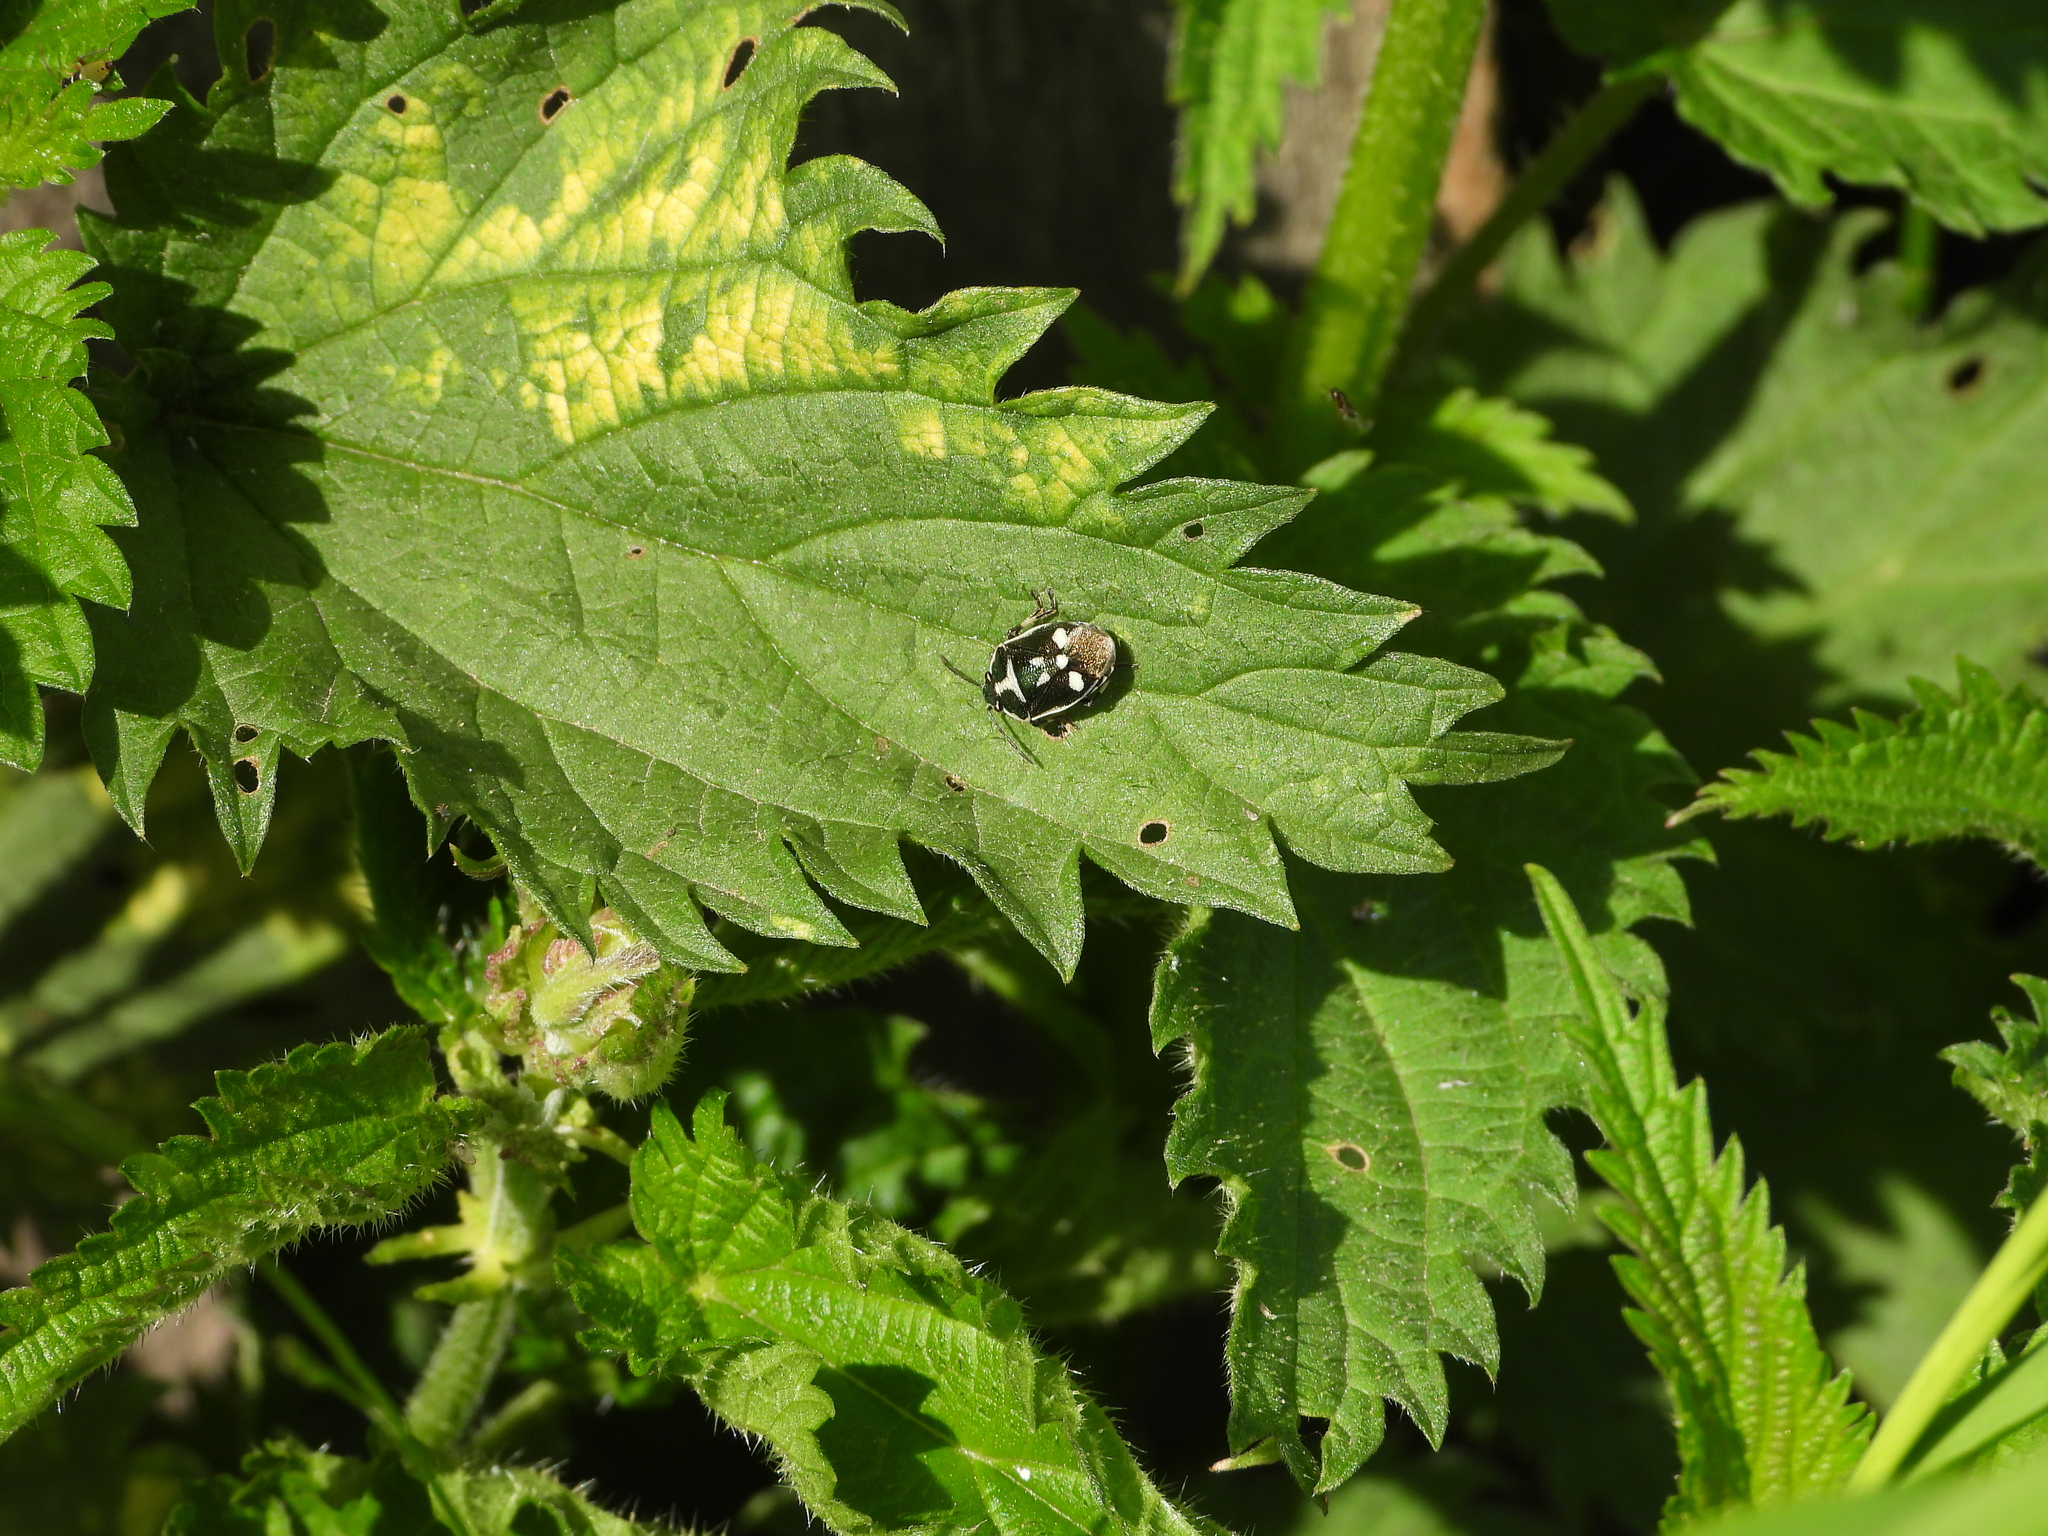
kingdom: Animalia
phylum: Arthropoda
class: Insecta
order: Hemiptera
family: Pentatomidae
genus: Eurydema
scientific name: Eurydema oleracea
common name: Cabbage bug
